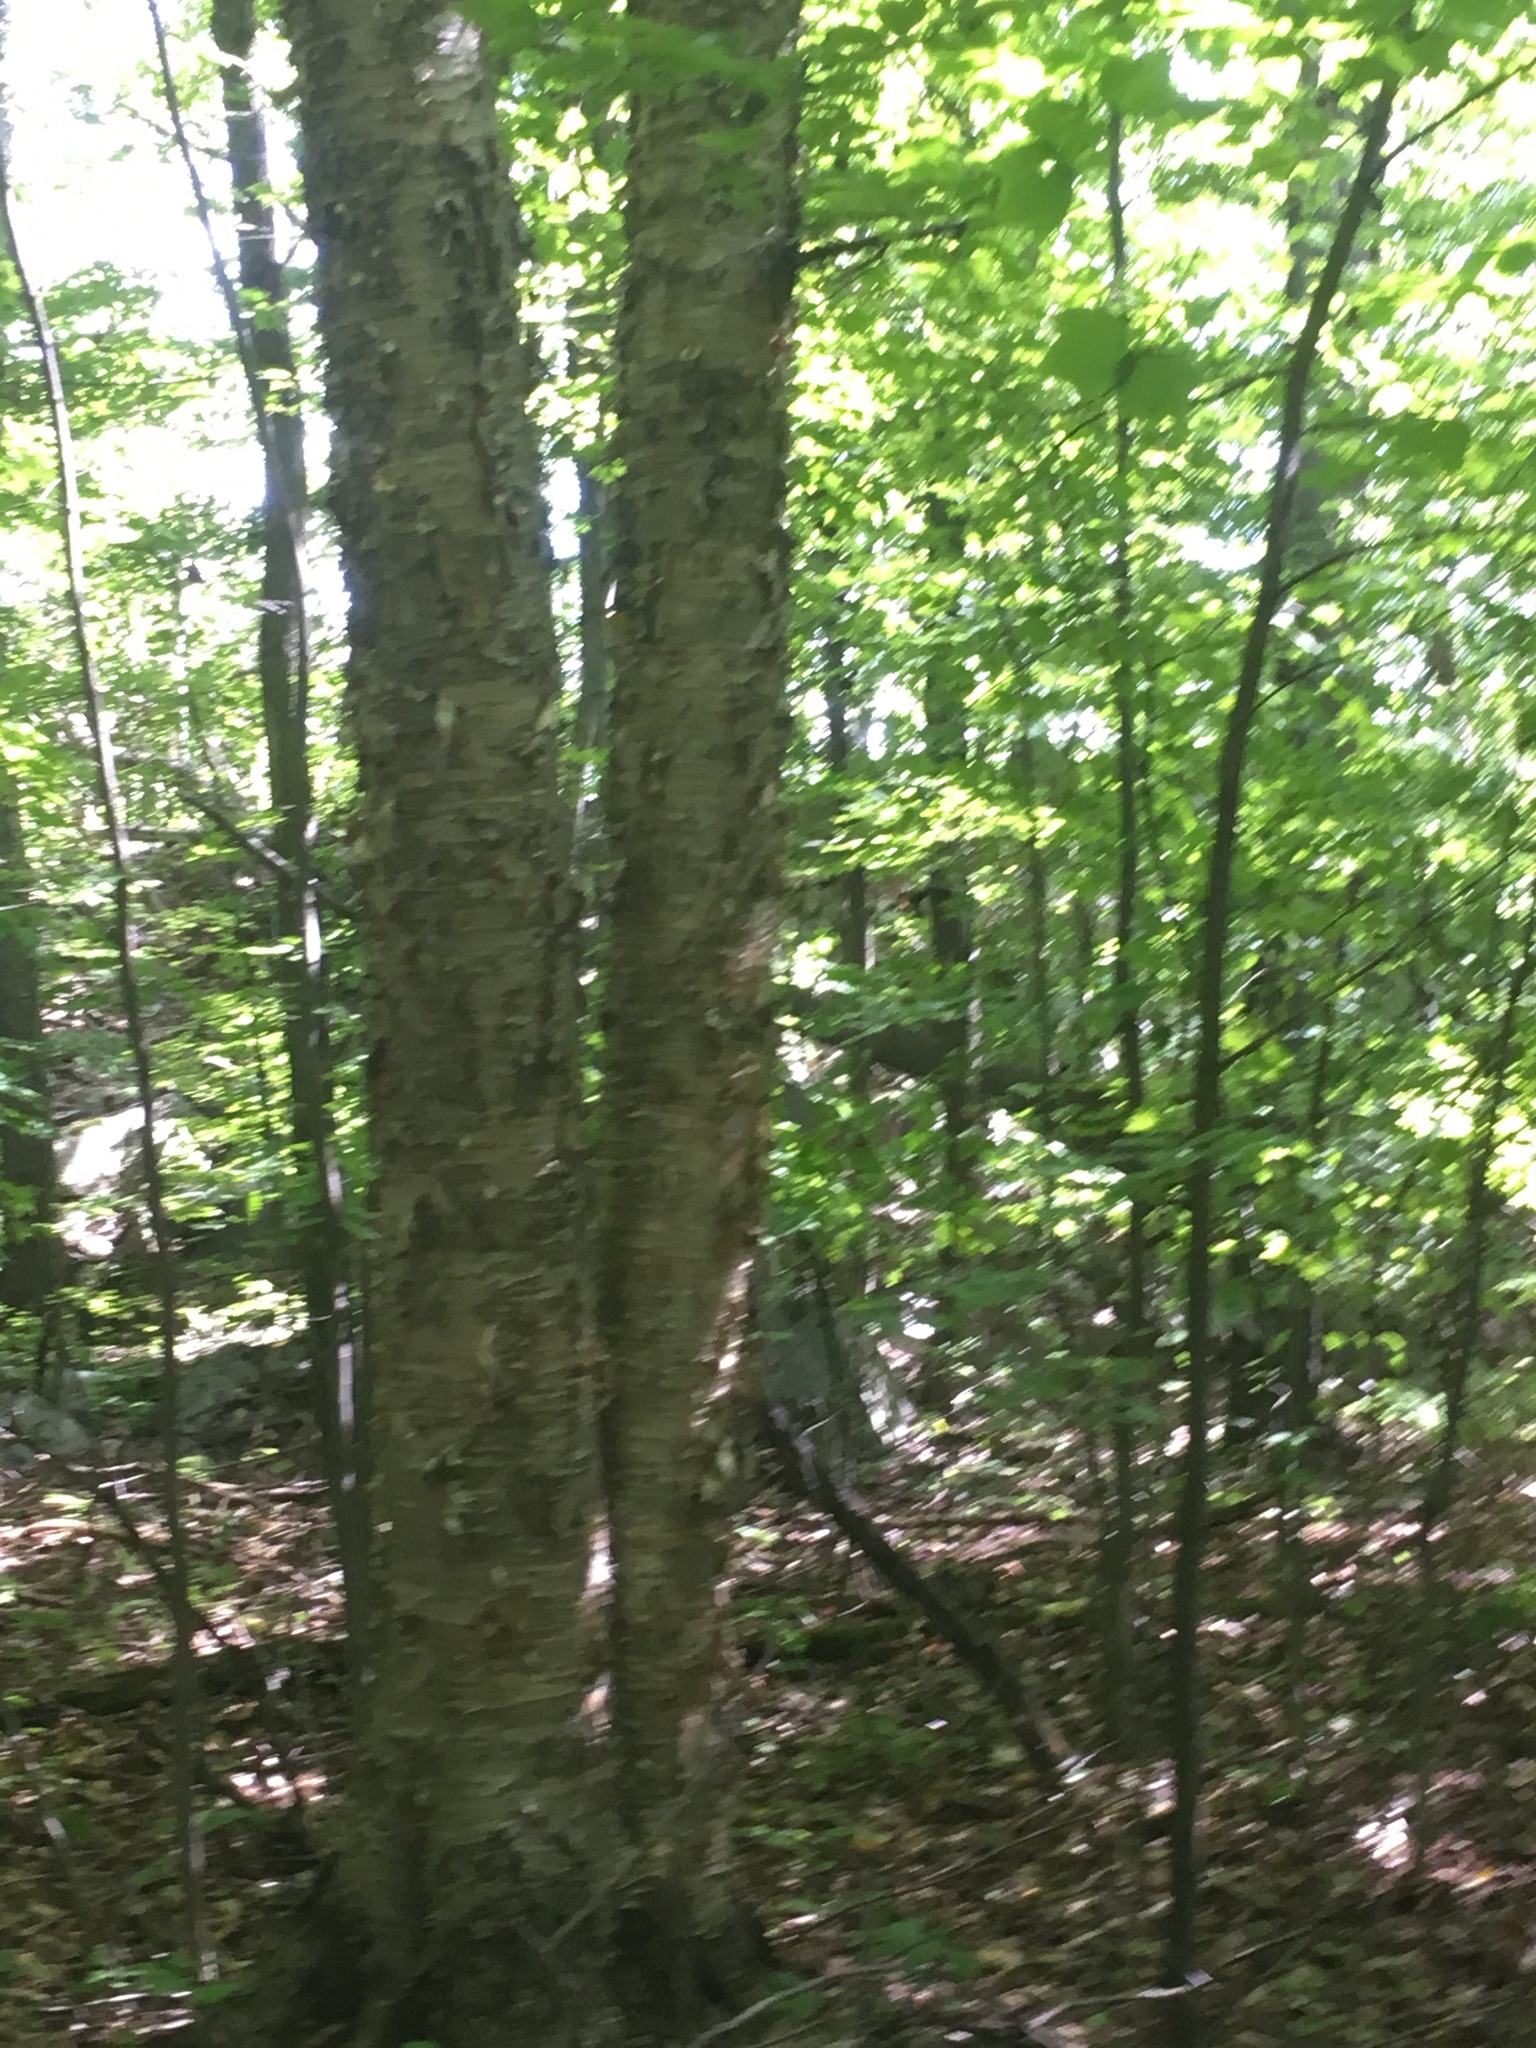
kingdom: Plantae
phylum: Tracheophyta
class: Magnoliopsida
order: Fagales
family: Betulaceae
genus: Betula
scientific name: Betula alleghaniensis
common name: Yellow birch
